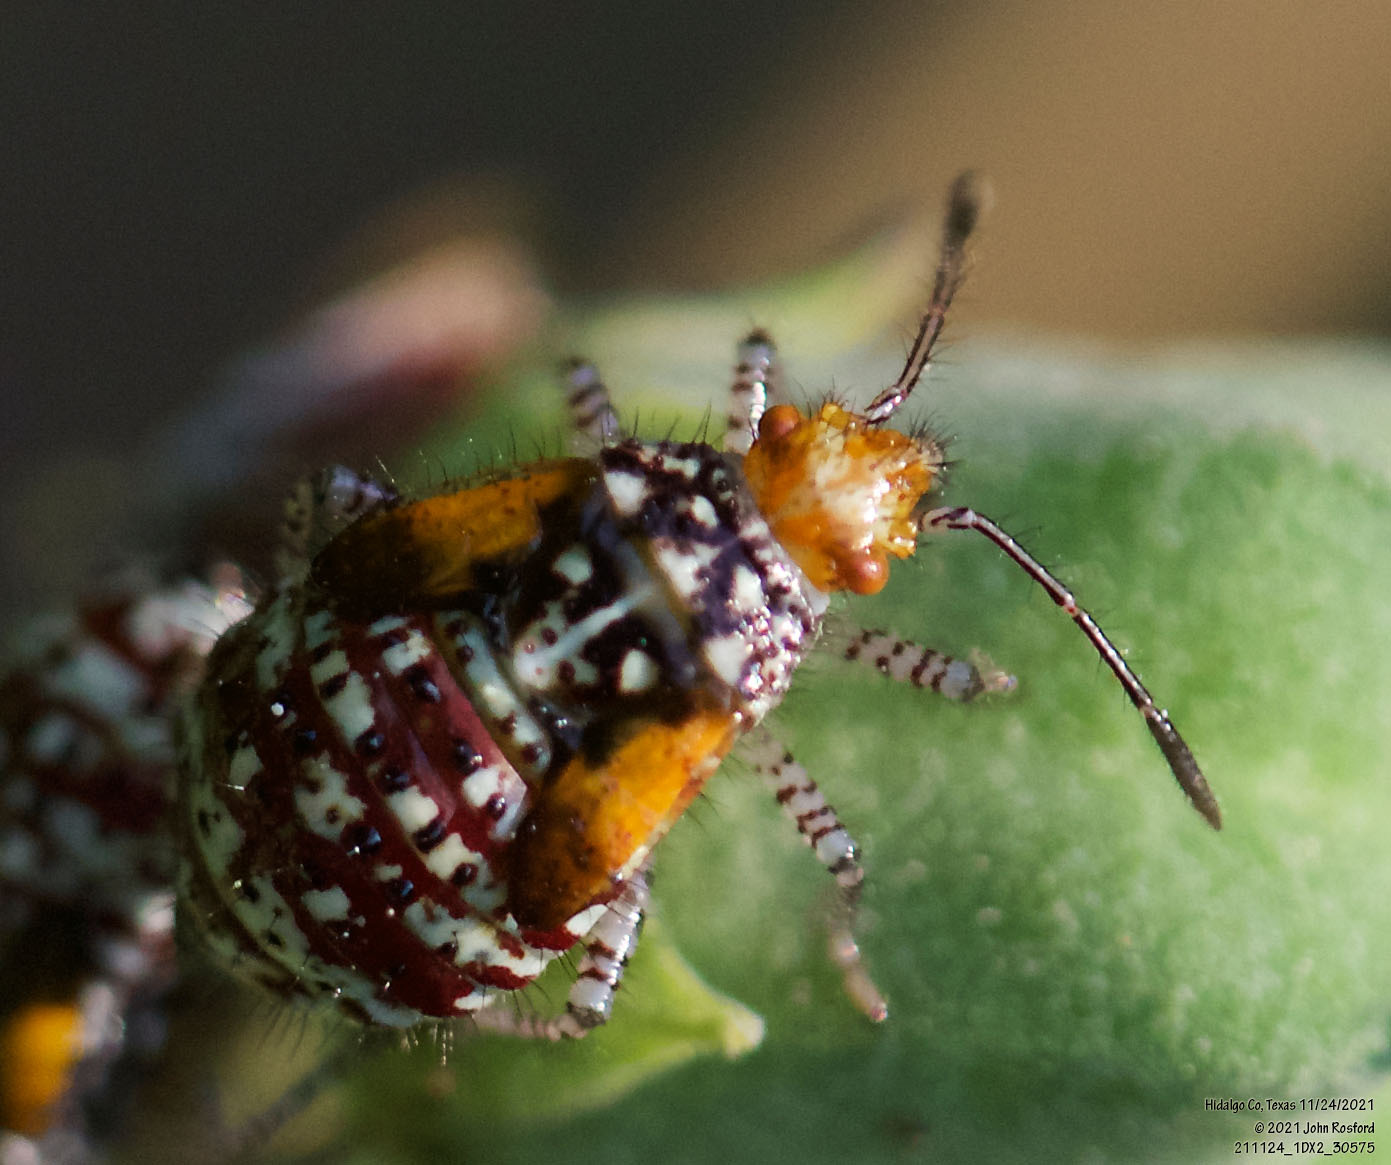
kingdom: Animalia
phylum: Arthropoda
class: Insecta
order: Hemiptera
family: Rhopalidae
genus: Niesthrea
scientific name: Niesthrea louisianica
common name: Scentless plant bug
